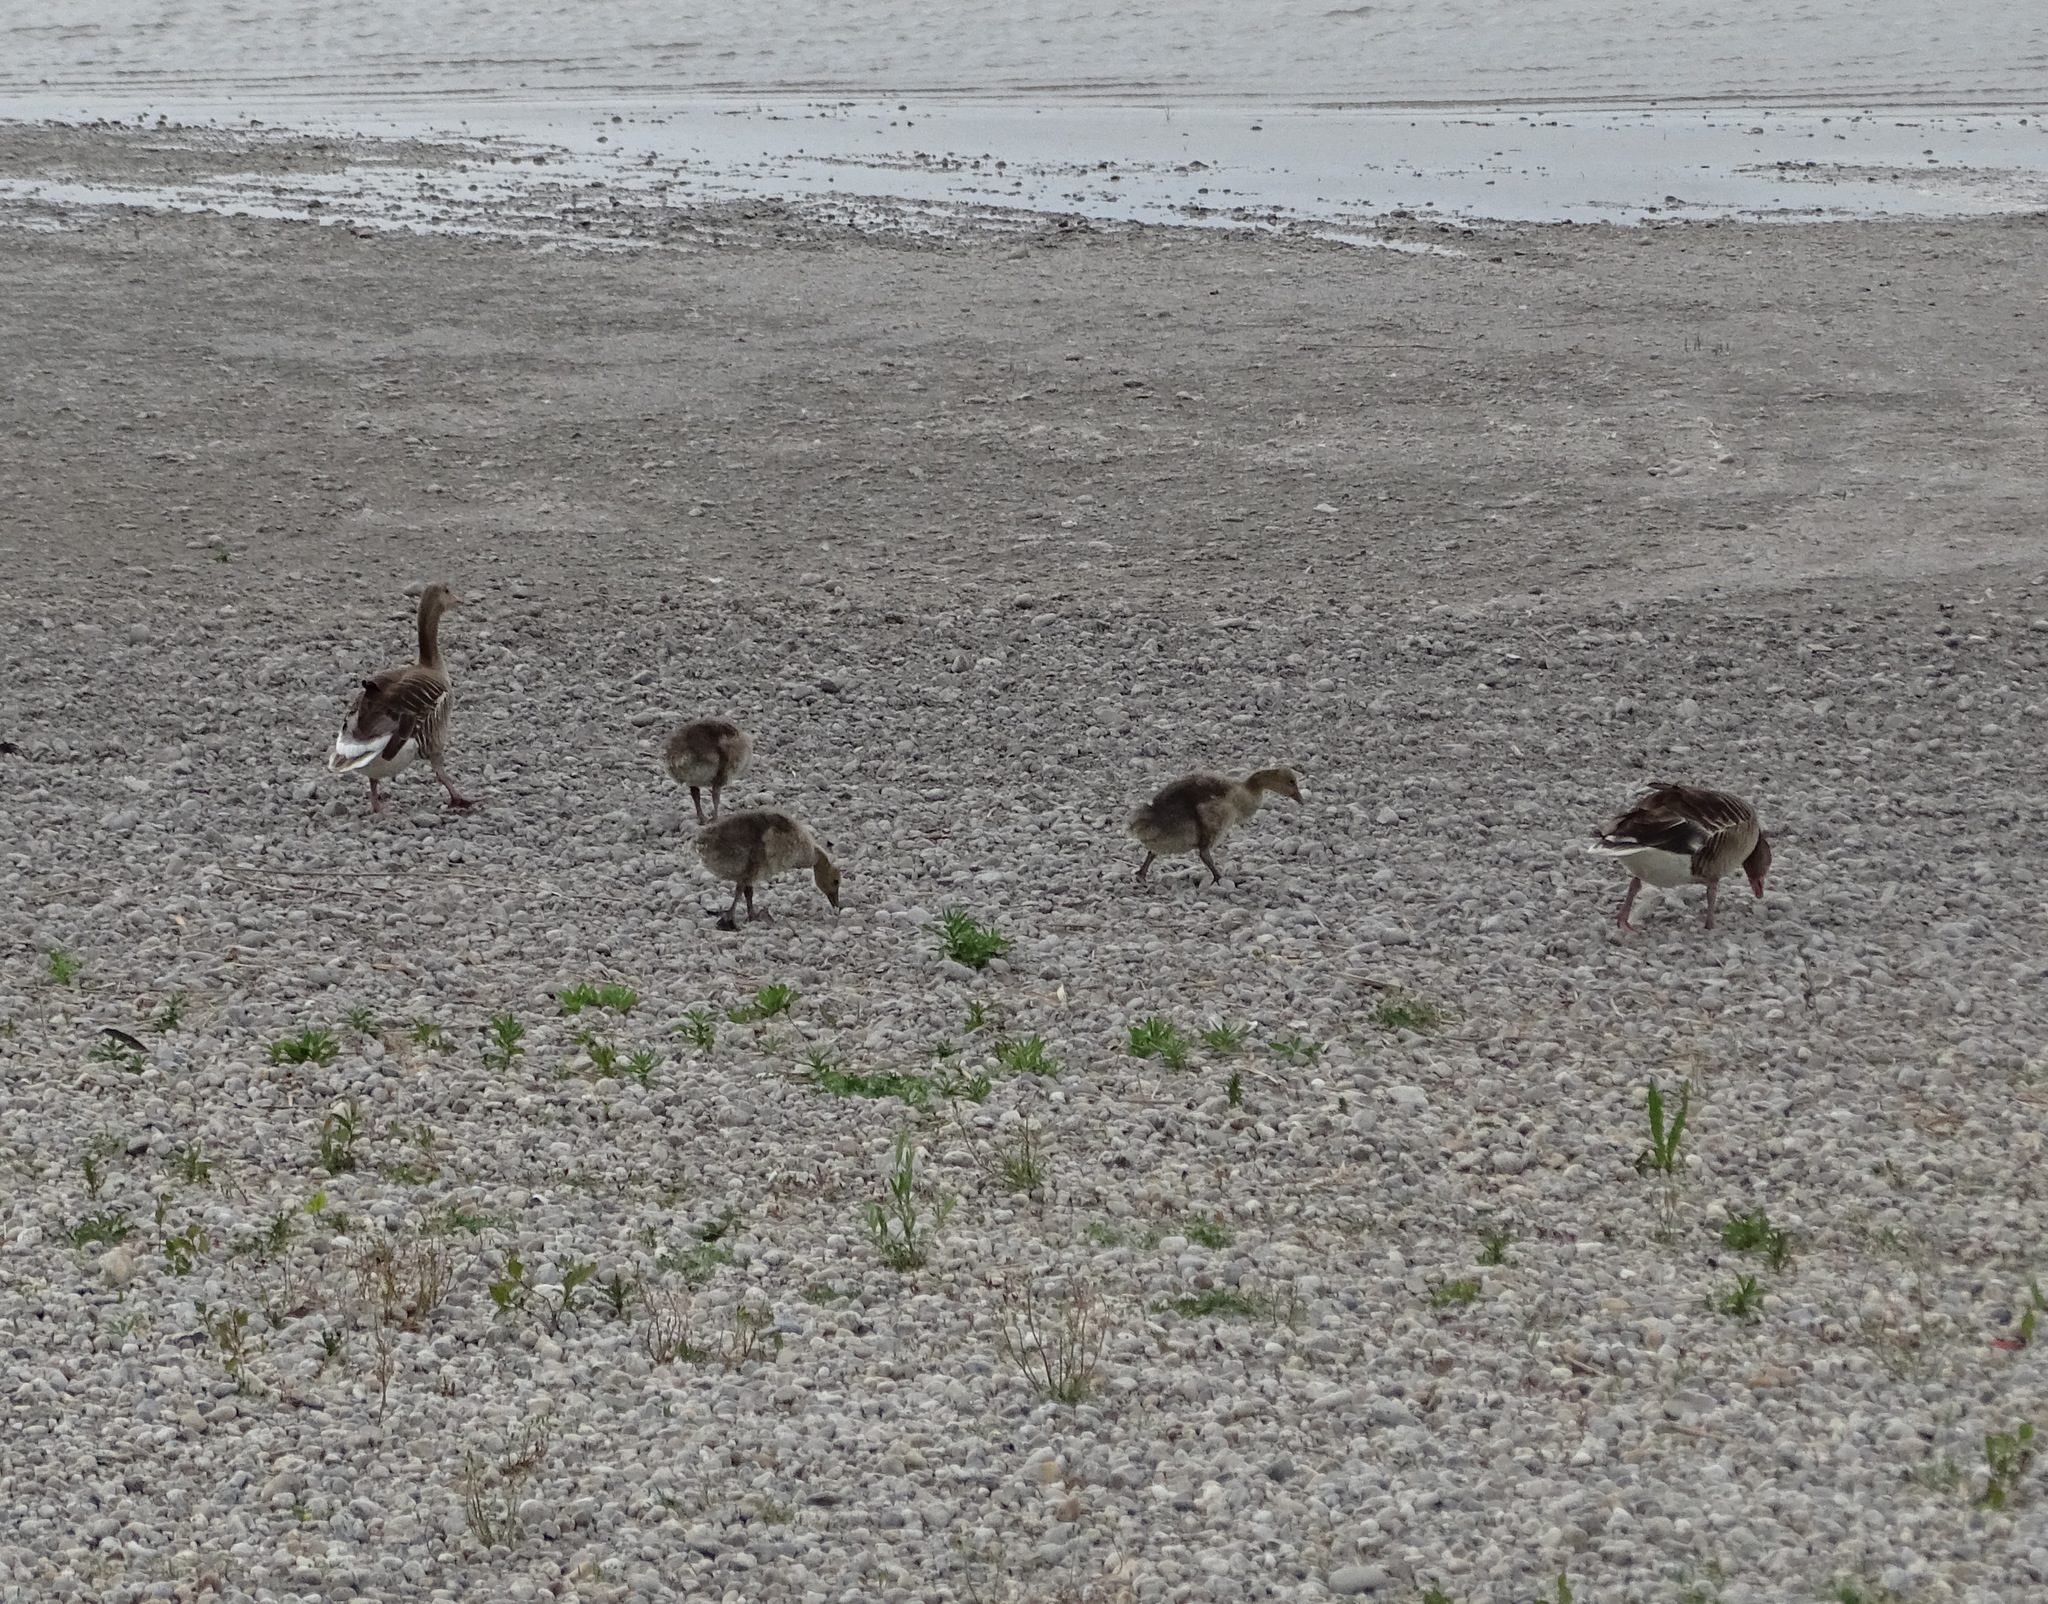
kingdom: Animalia
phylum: Chordata
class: Aves
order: Anseriformes
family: Anatidae
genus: Anser
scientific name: Anser anser
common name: Greylag goose
